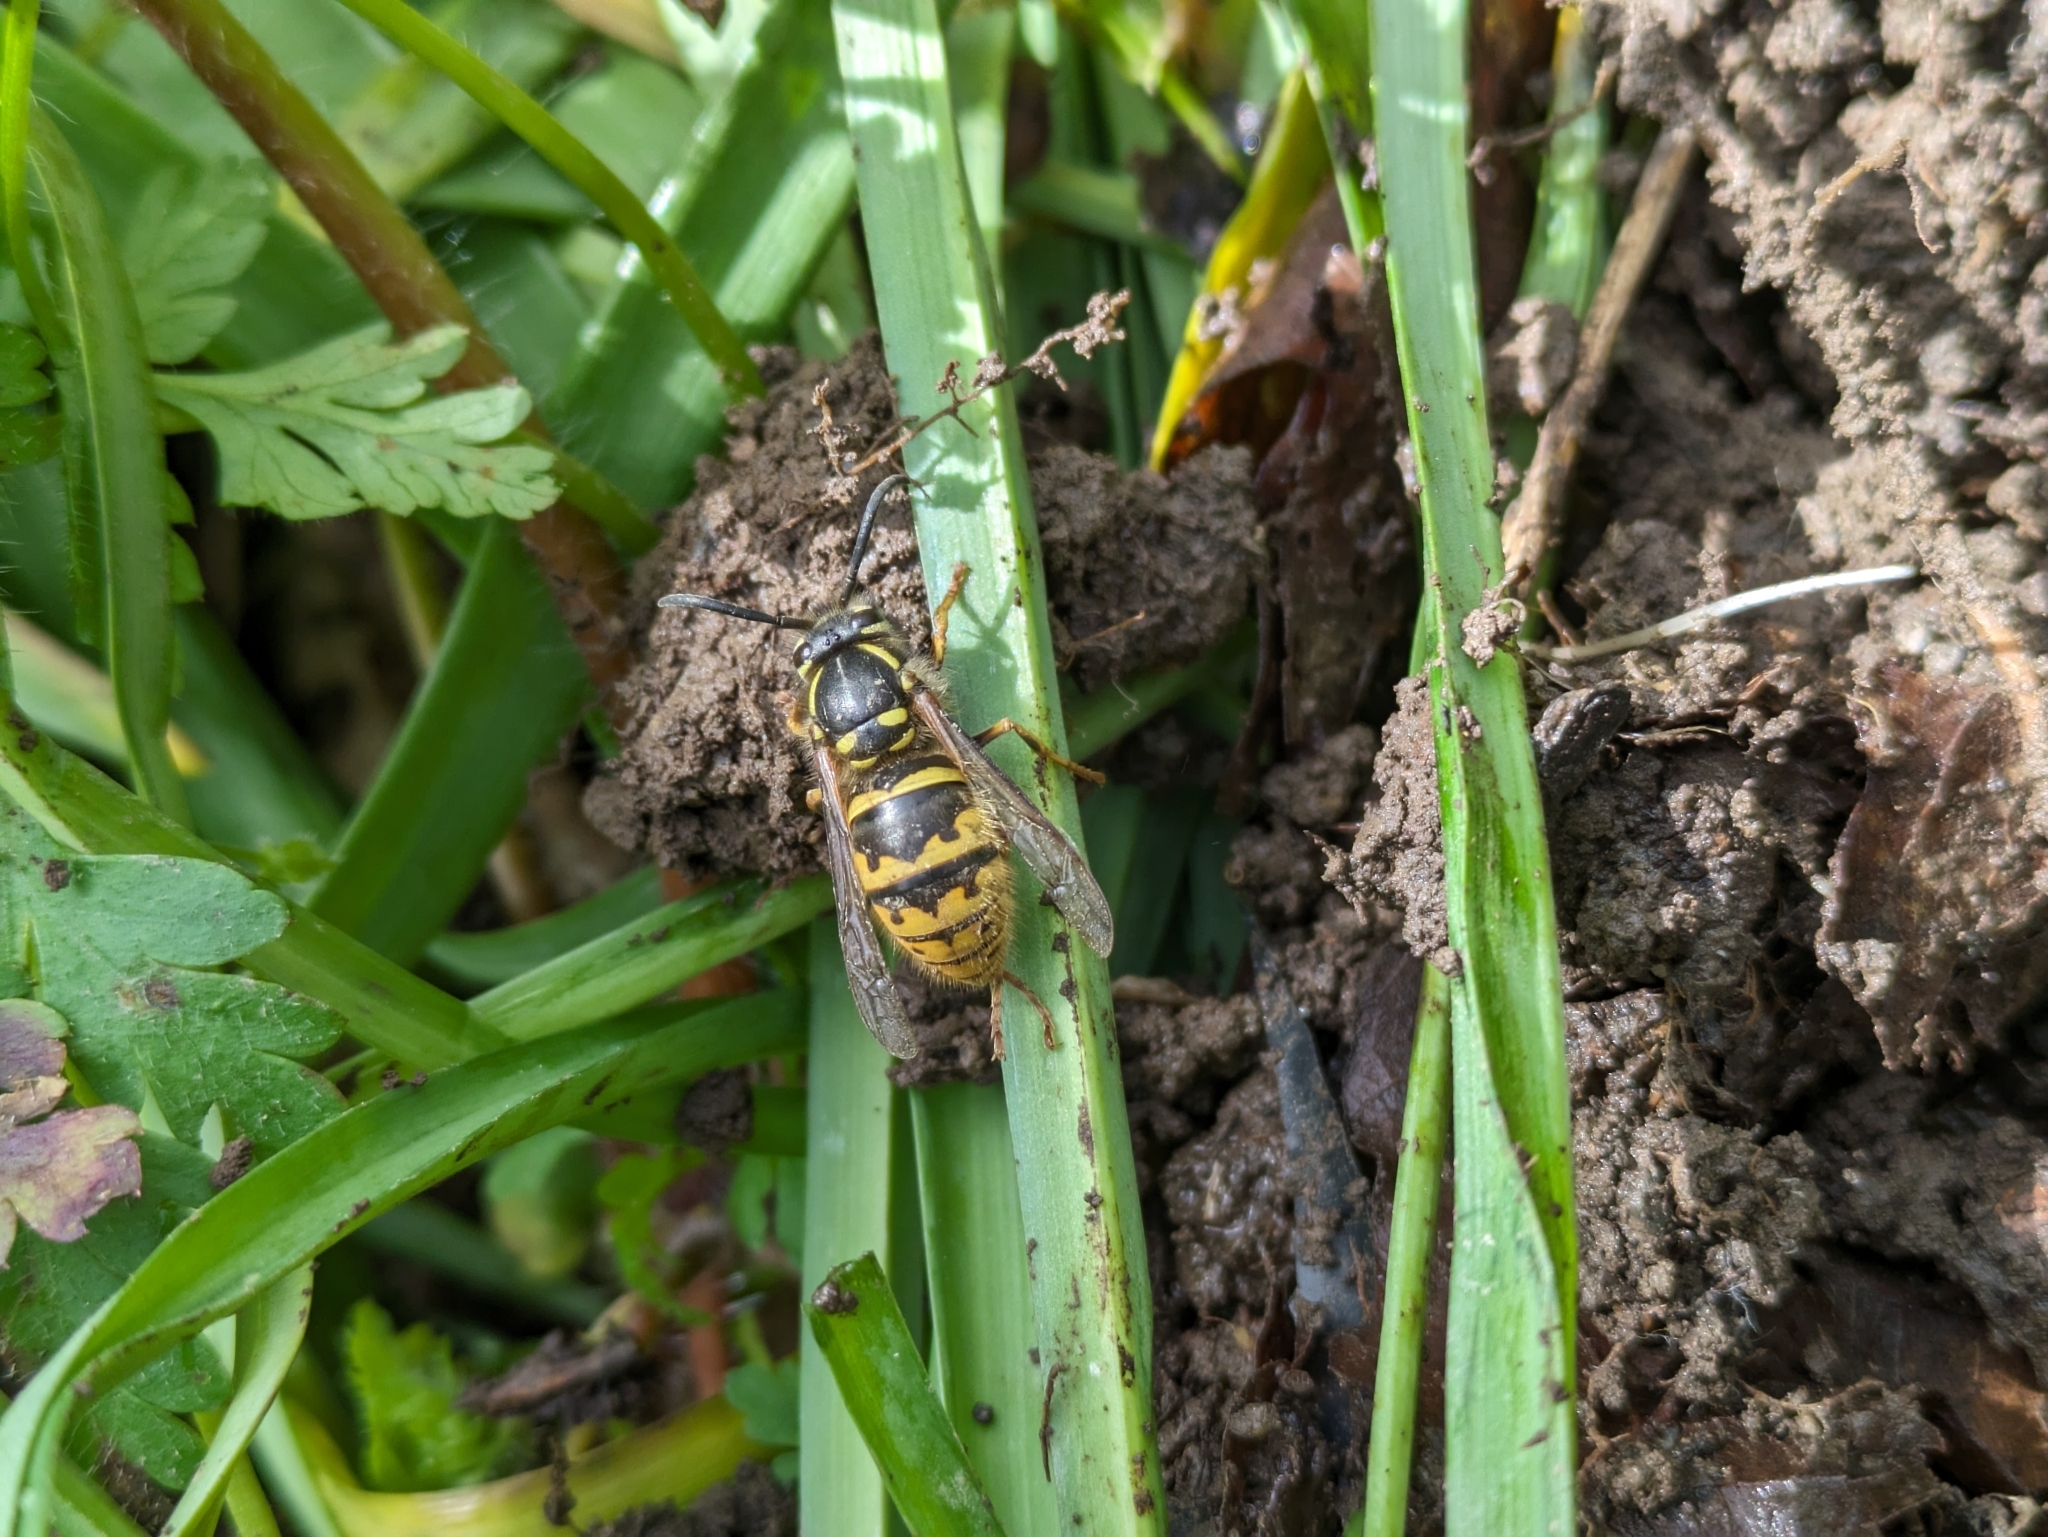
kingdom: Animalia
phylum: Arthropoda
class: Insecta
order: Hymenoptera
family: Vespidae
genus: Vespula
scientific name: Vespula vulgaris
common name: Common wasp
